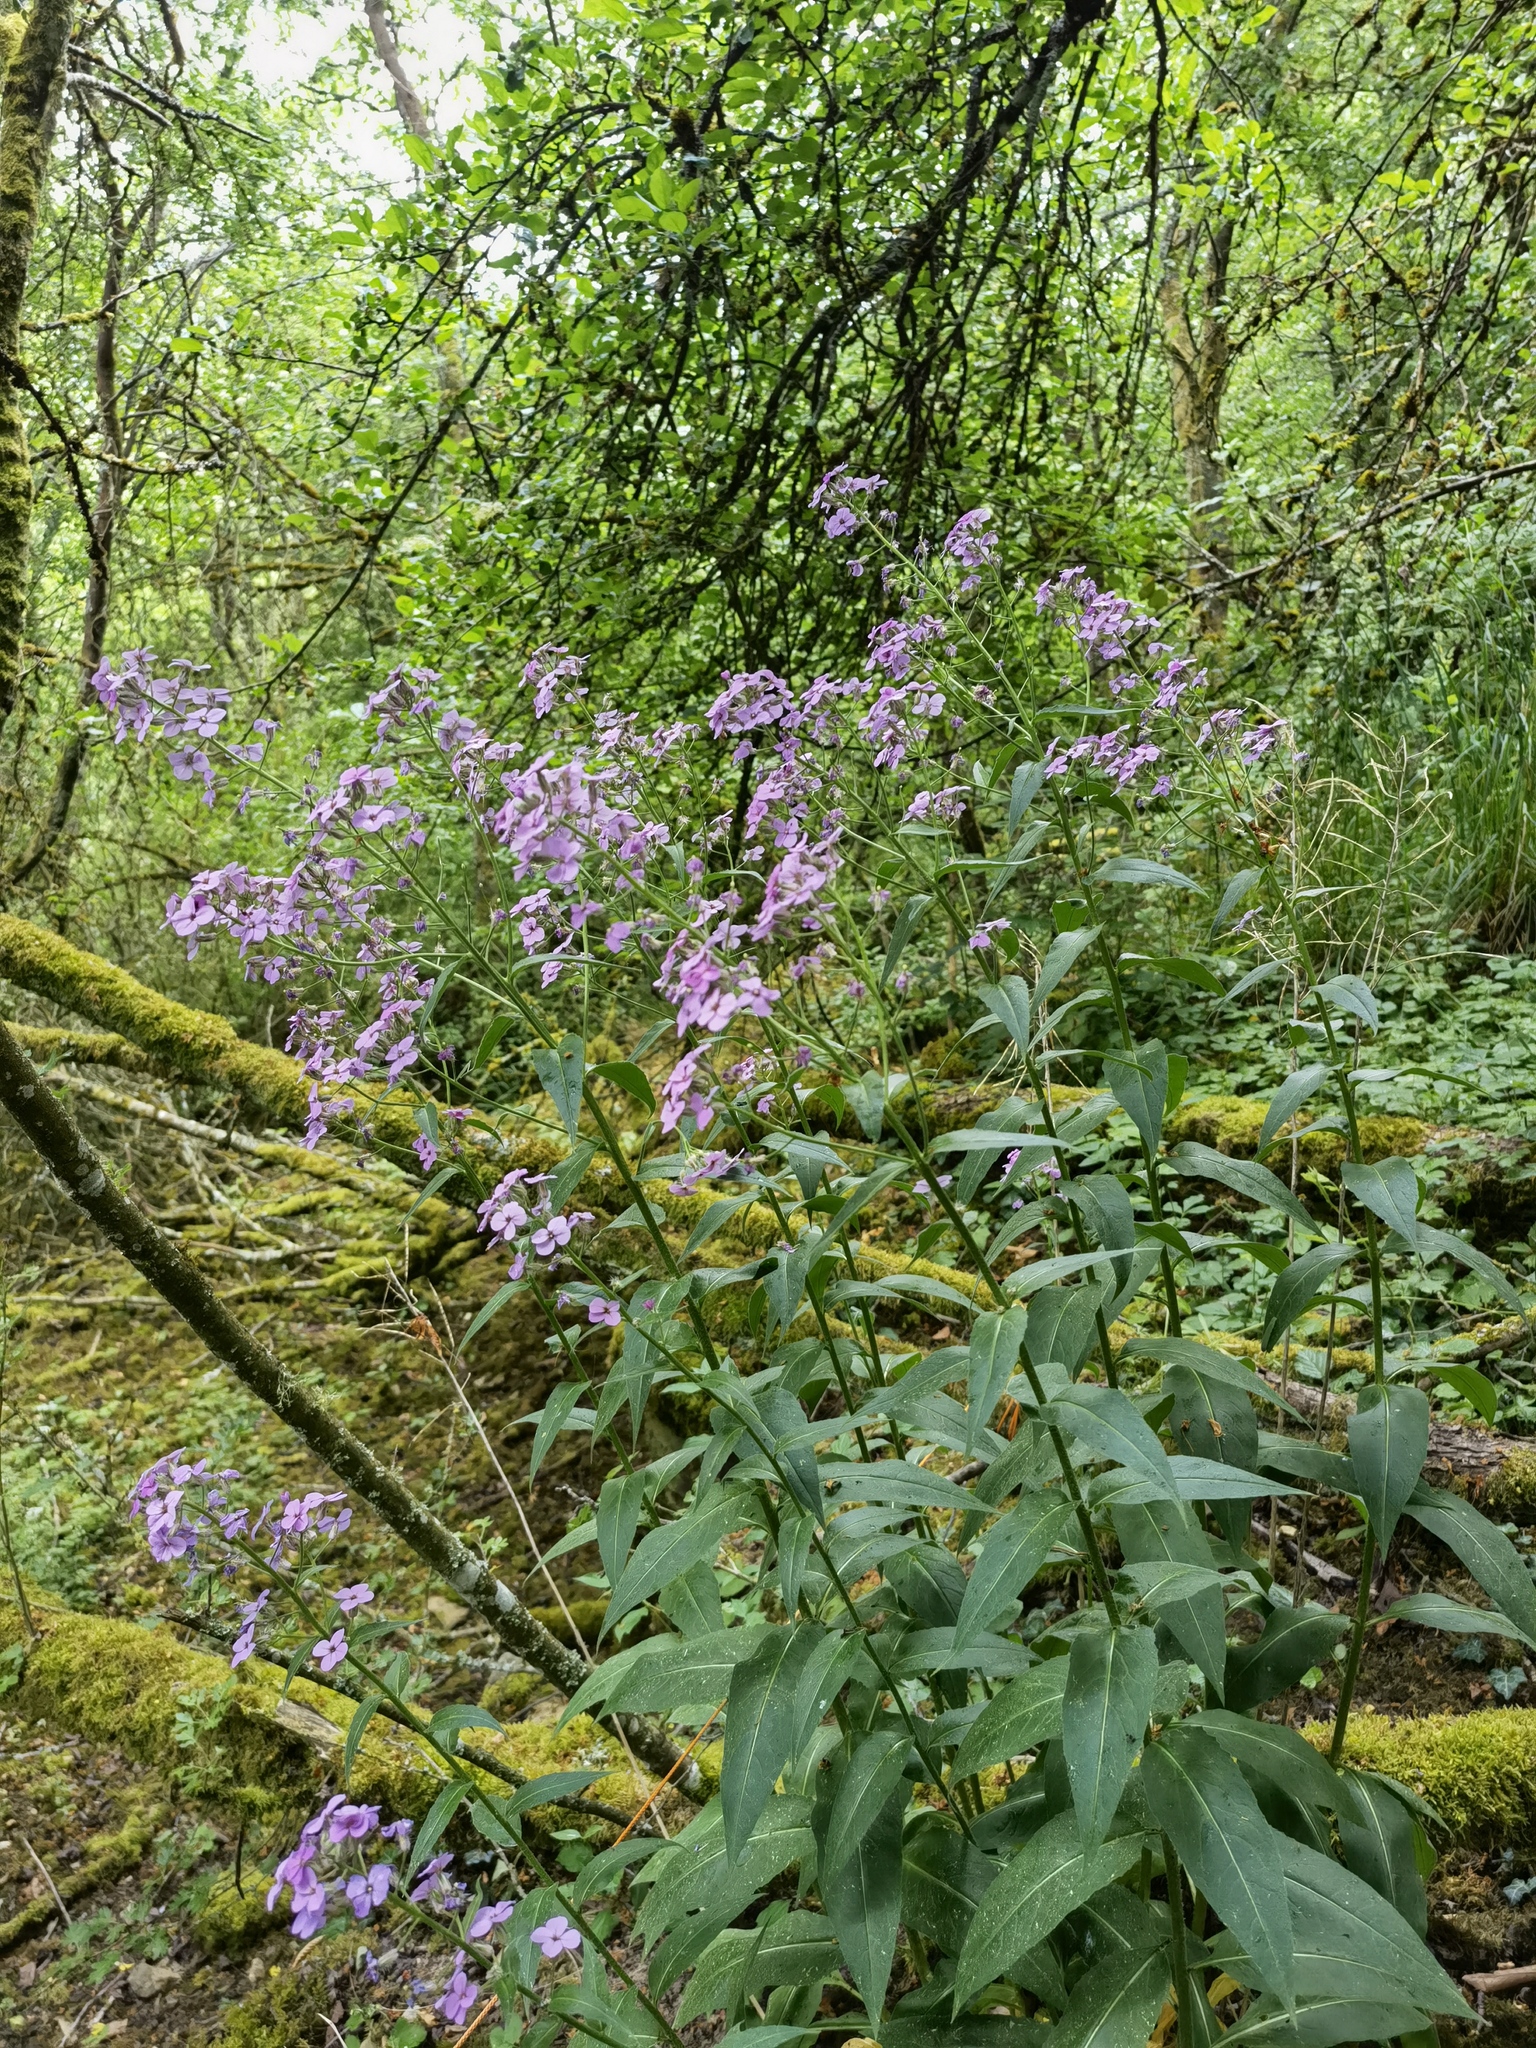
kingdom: Plantae
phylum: Tracheophyta
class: Magnoliopsida
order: Brassicales
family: Brassicaceae
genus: Hesperis
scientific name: Hesperis matronalis
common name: Dame's-violet
